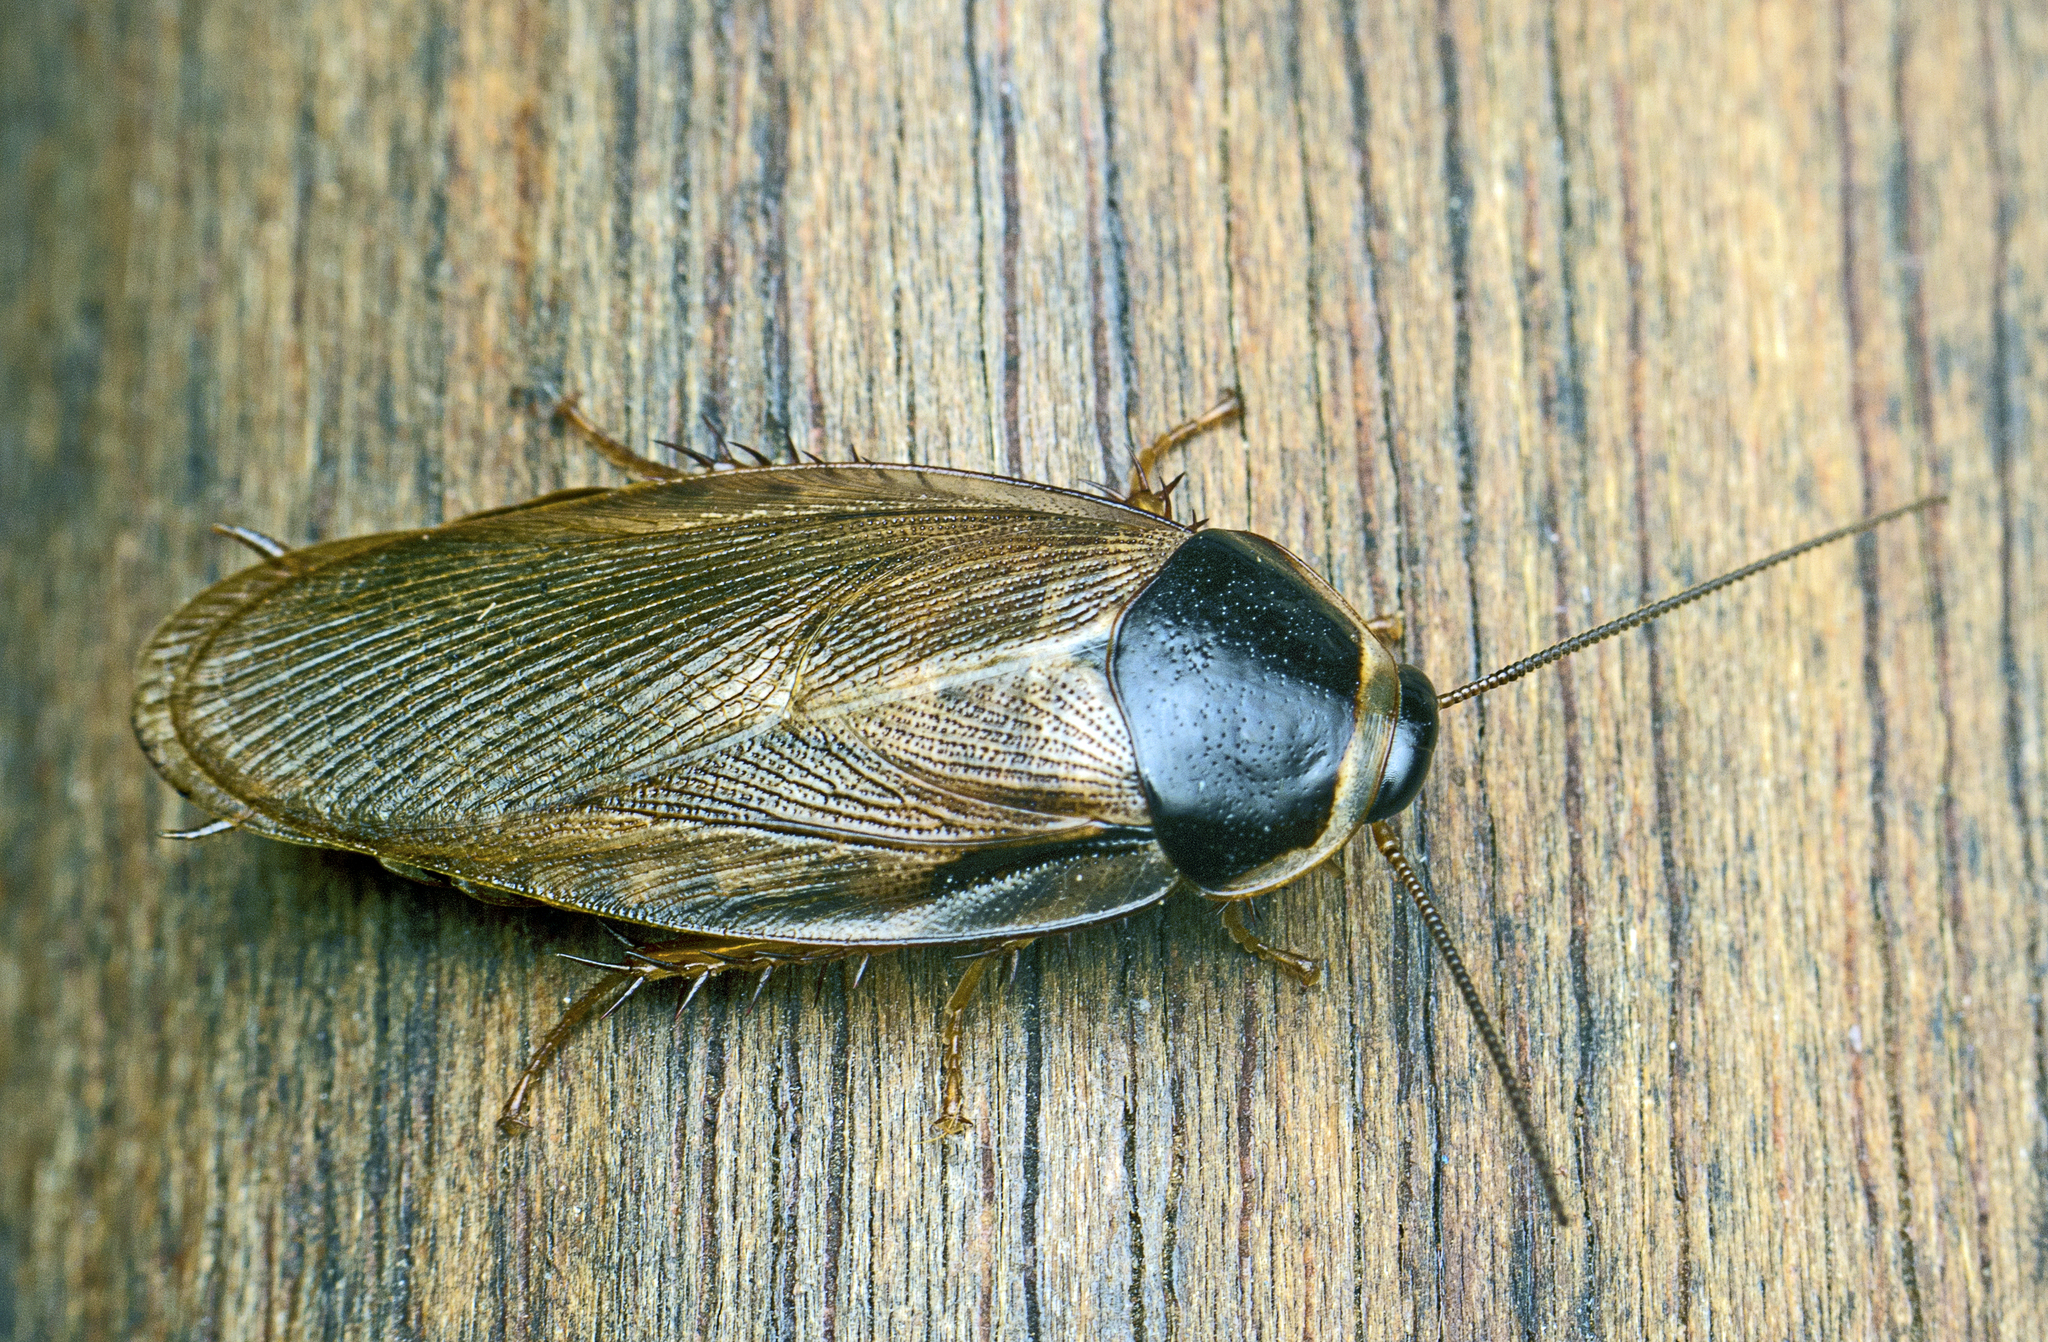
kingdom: Animalia
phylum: Arthropoda
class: Insecta
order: Blattodea
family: Blaberidae
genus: Pycnoscelus
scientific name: Pycnoscelus surinamensis
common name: Surinam cockroach
